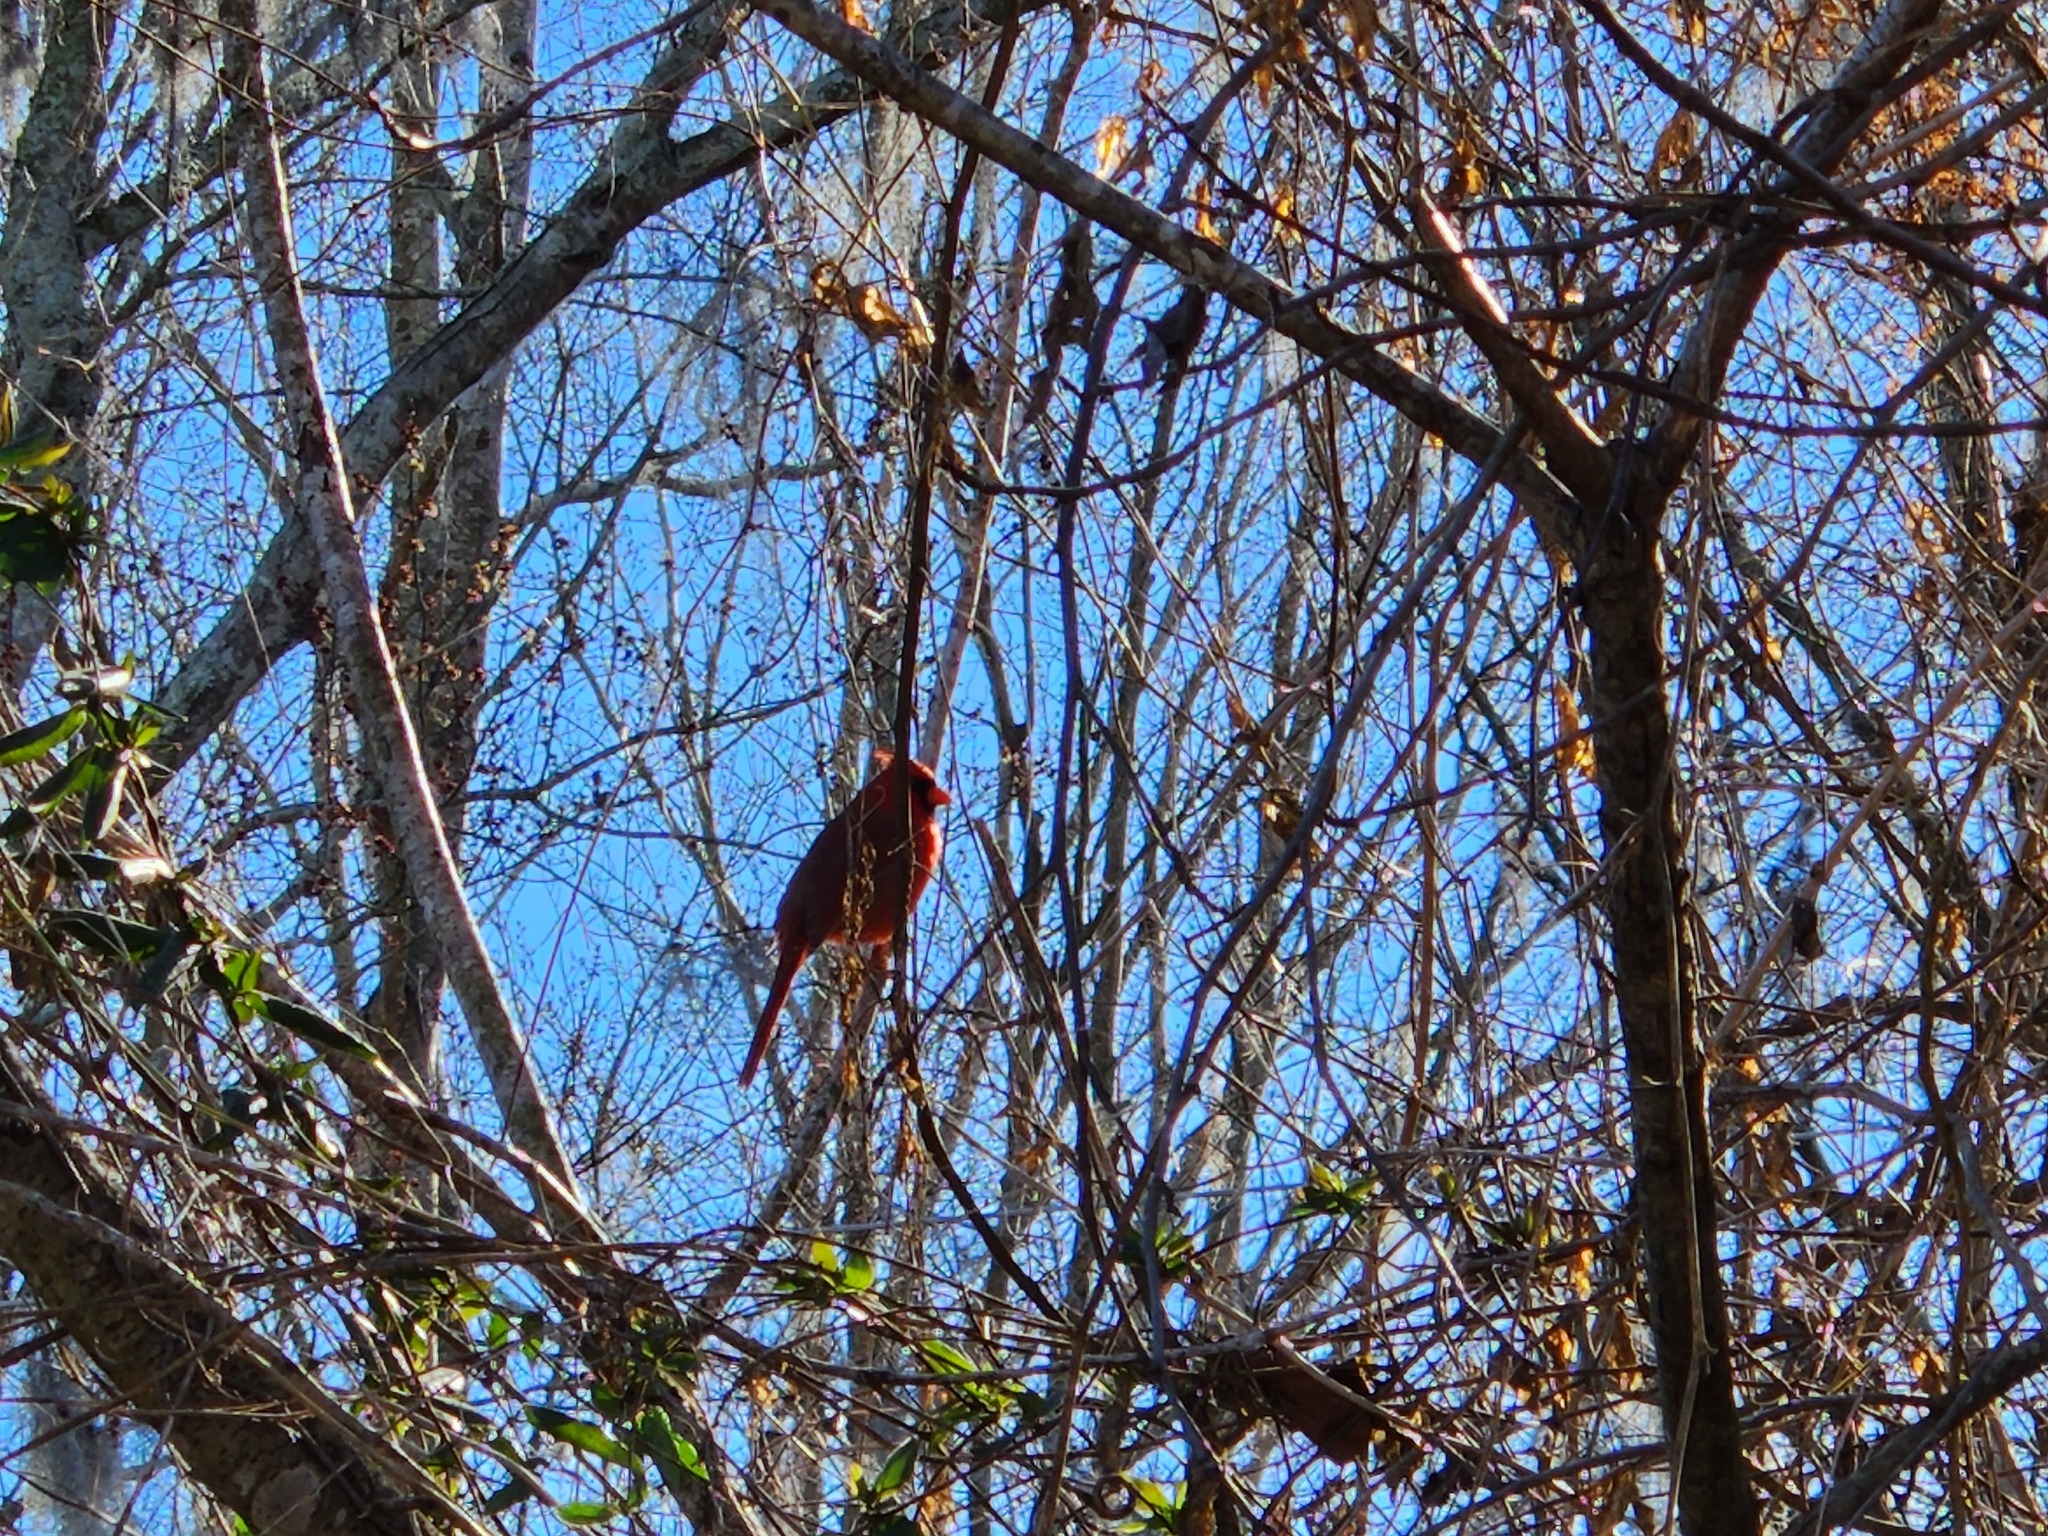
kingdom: Animalia
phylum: Chordata
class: Aves
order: Passeriformes
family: Cardinalidae
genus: Cardinalis
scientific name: Cardinalis cardinalis
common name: Northern cardinal
